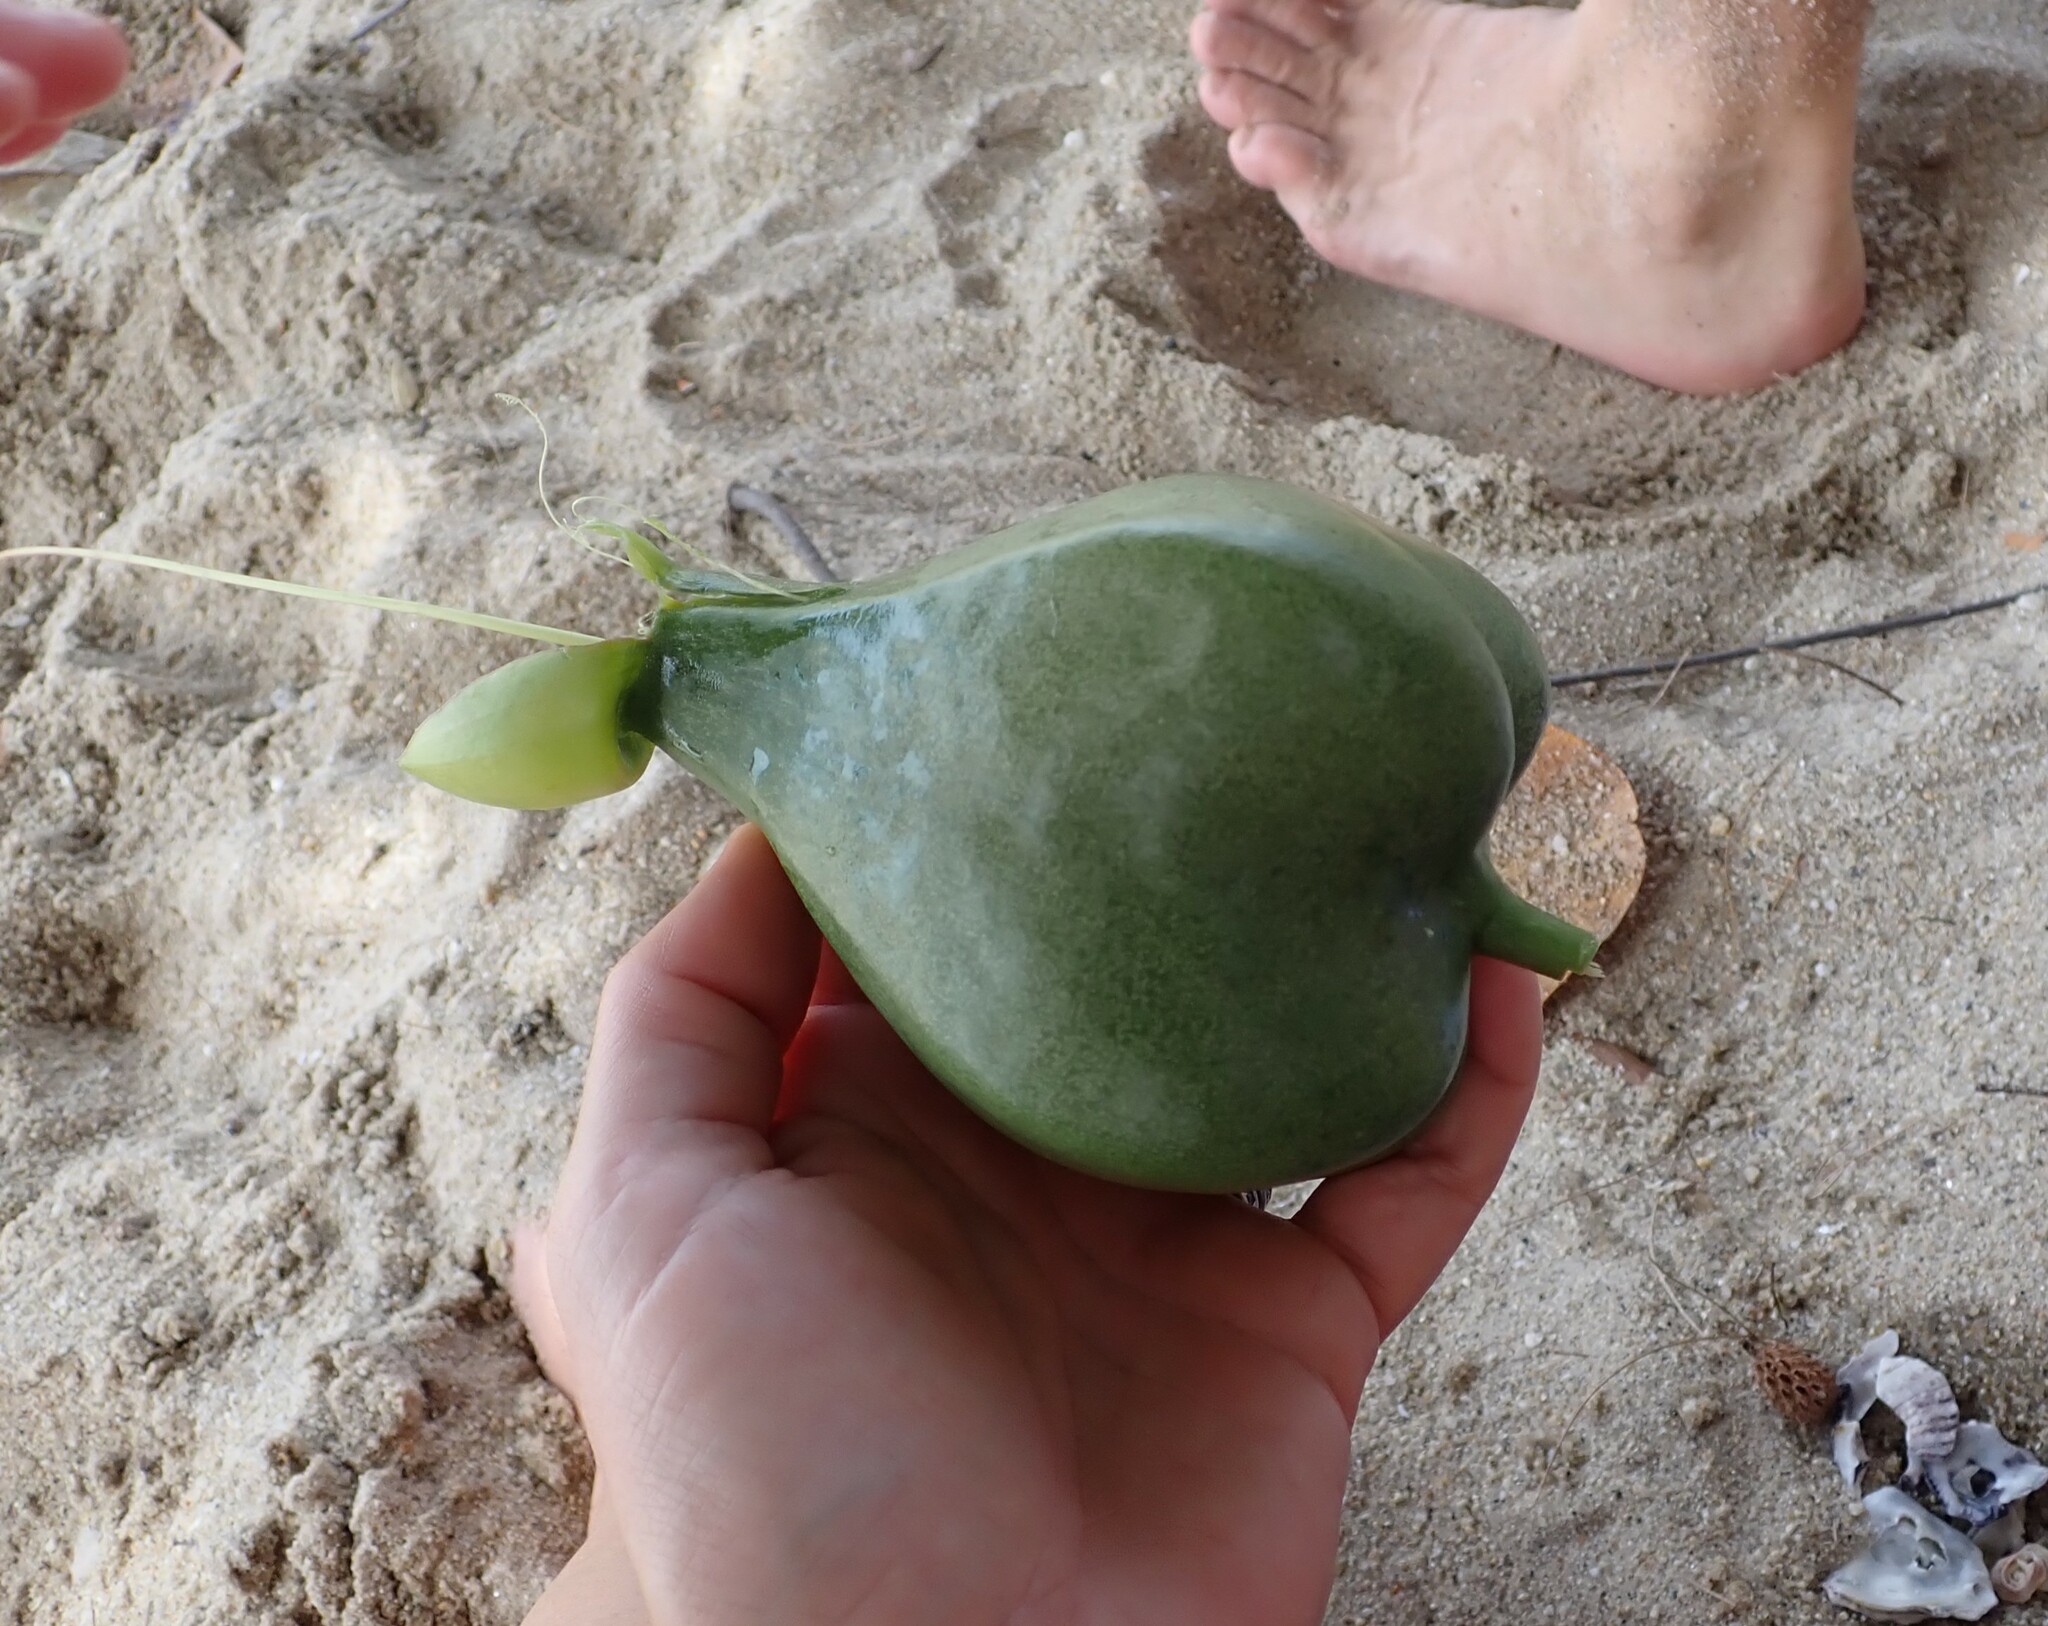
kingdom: Plantae
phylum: Tracheophyta
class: Magnoliopsida
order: Ericales
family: Lecythidaceae
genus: Barringtonia
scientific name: Barringtonia asiatica
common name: Mango-pine
